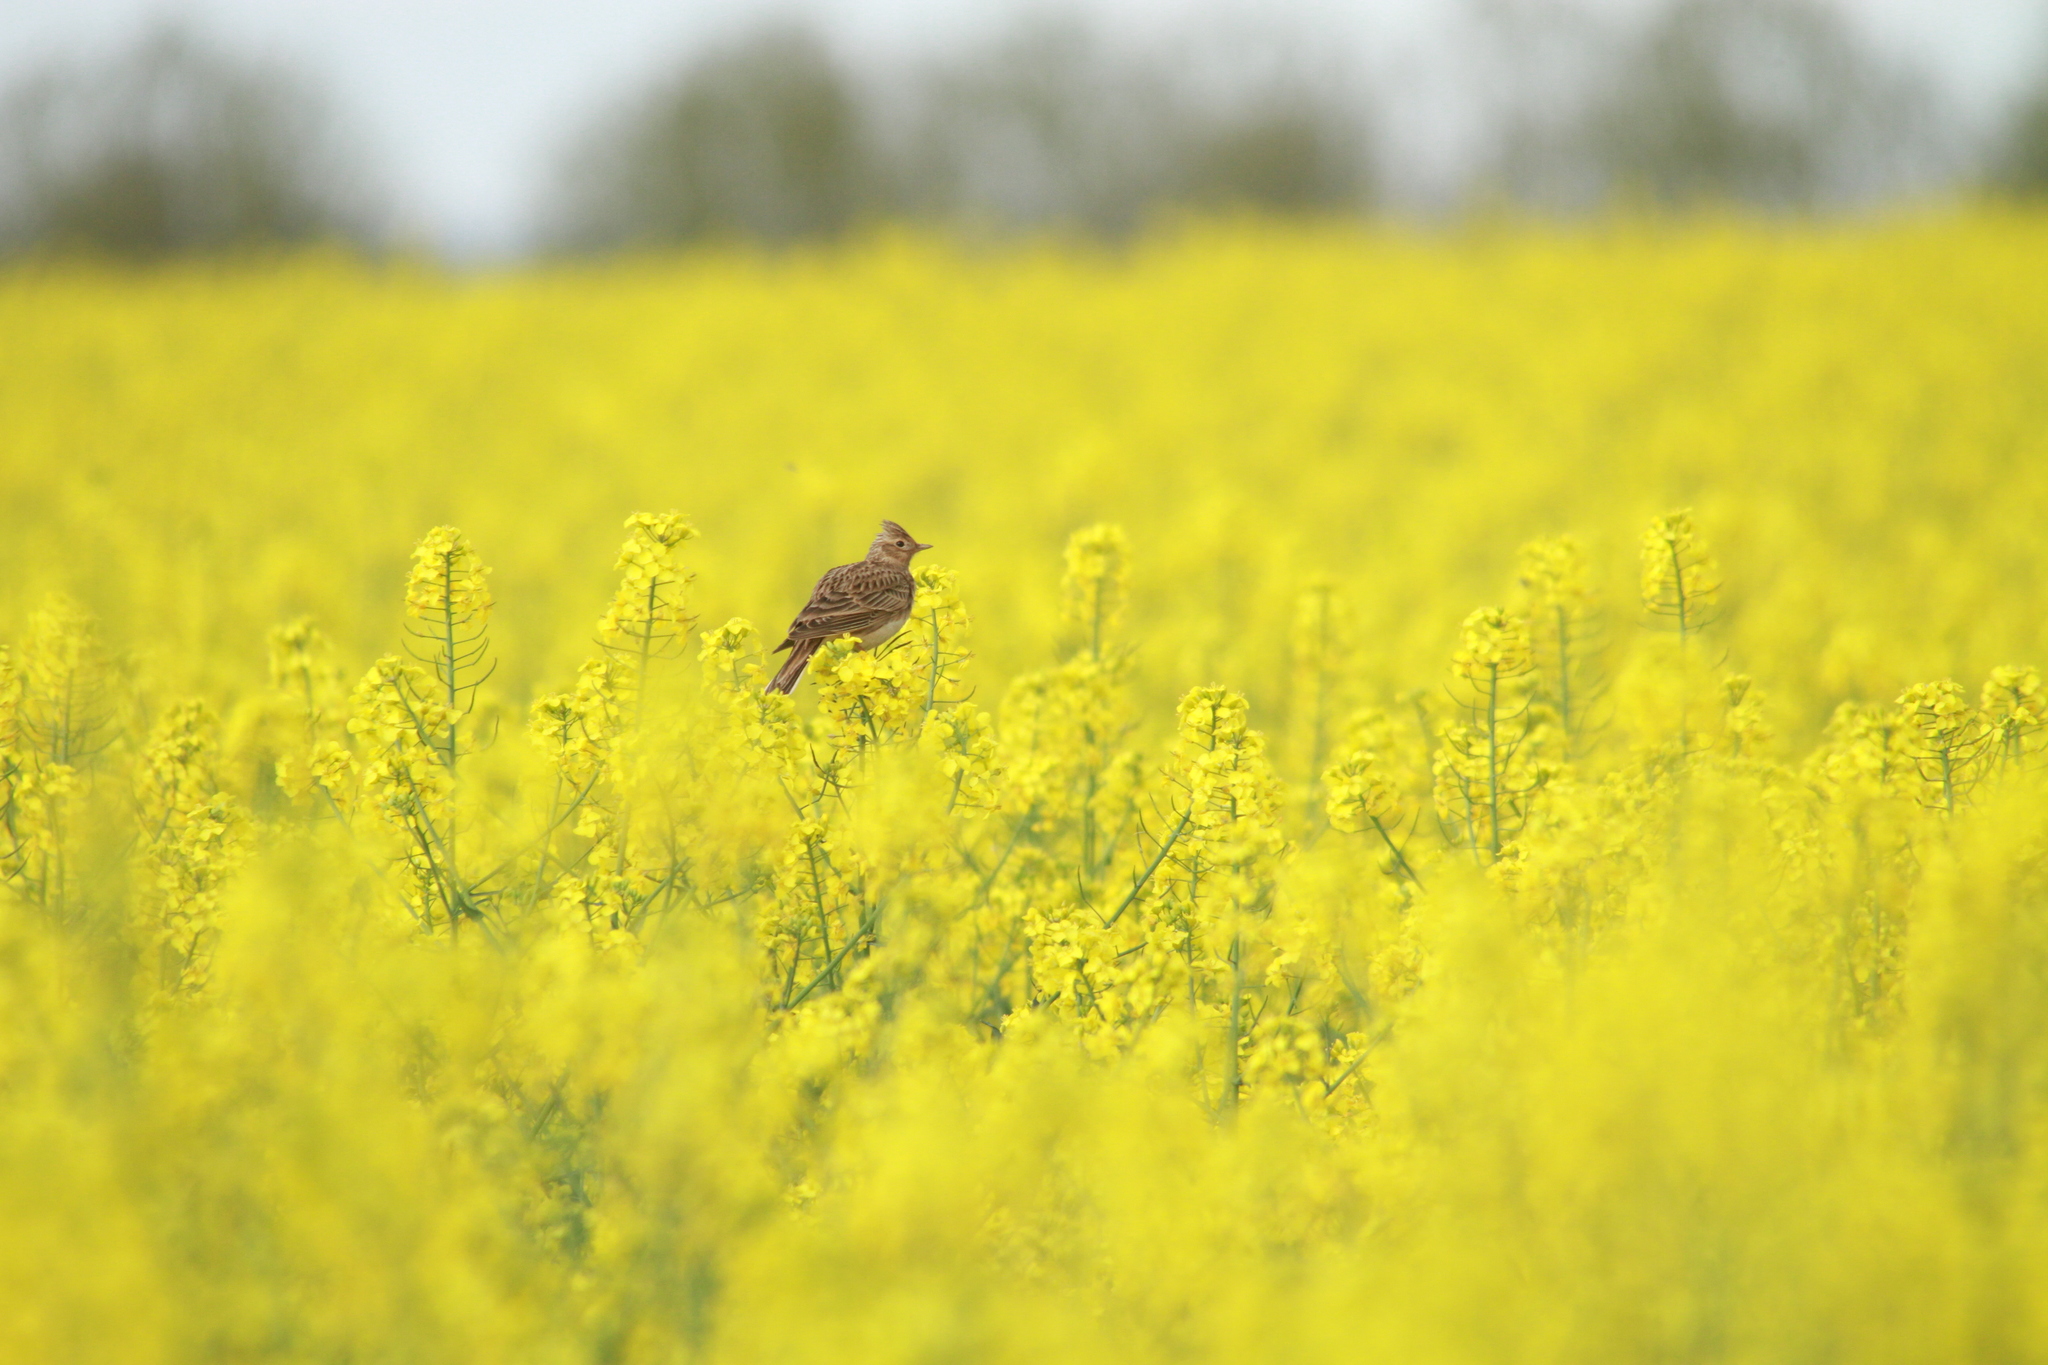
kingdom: Animalia
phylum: Chordata
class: Aves
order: Passeriformes
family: Alaudidae
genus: Alauda
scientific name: Alauda arvensis
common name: Eurasian skylark
